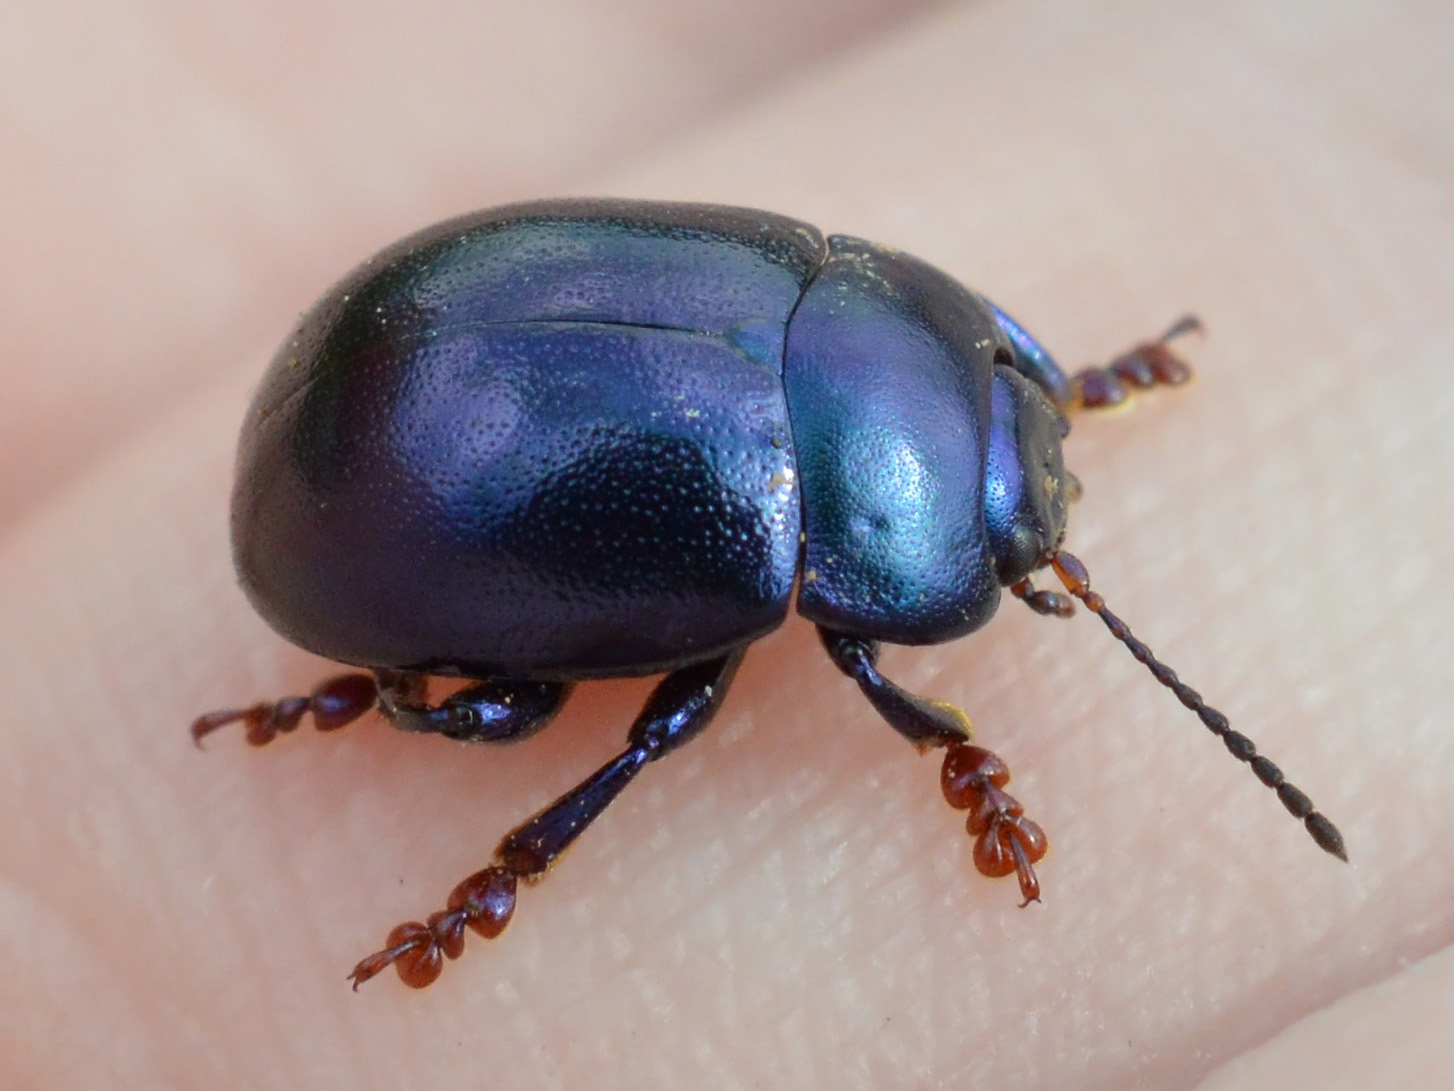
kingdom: Animalia
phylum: Arthropoda
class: Insecta
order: Coleoptera
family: Chrysomelidae
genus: Chrysolina
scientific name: Chrysolina sturmi
